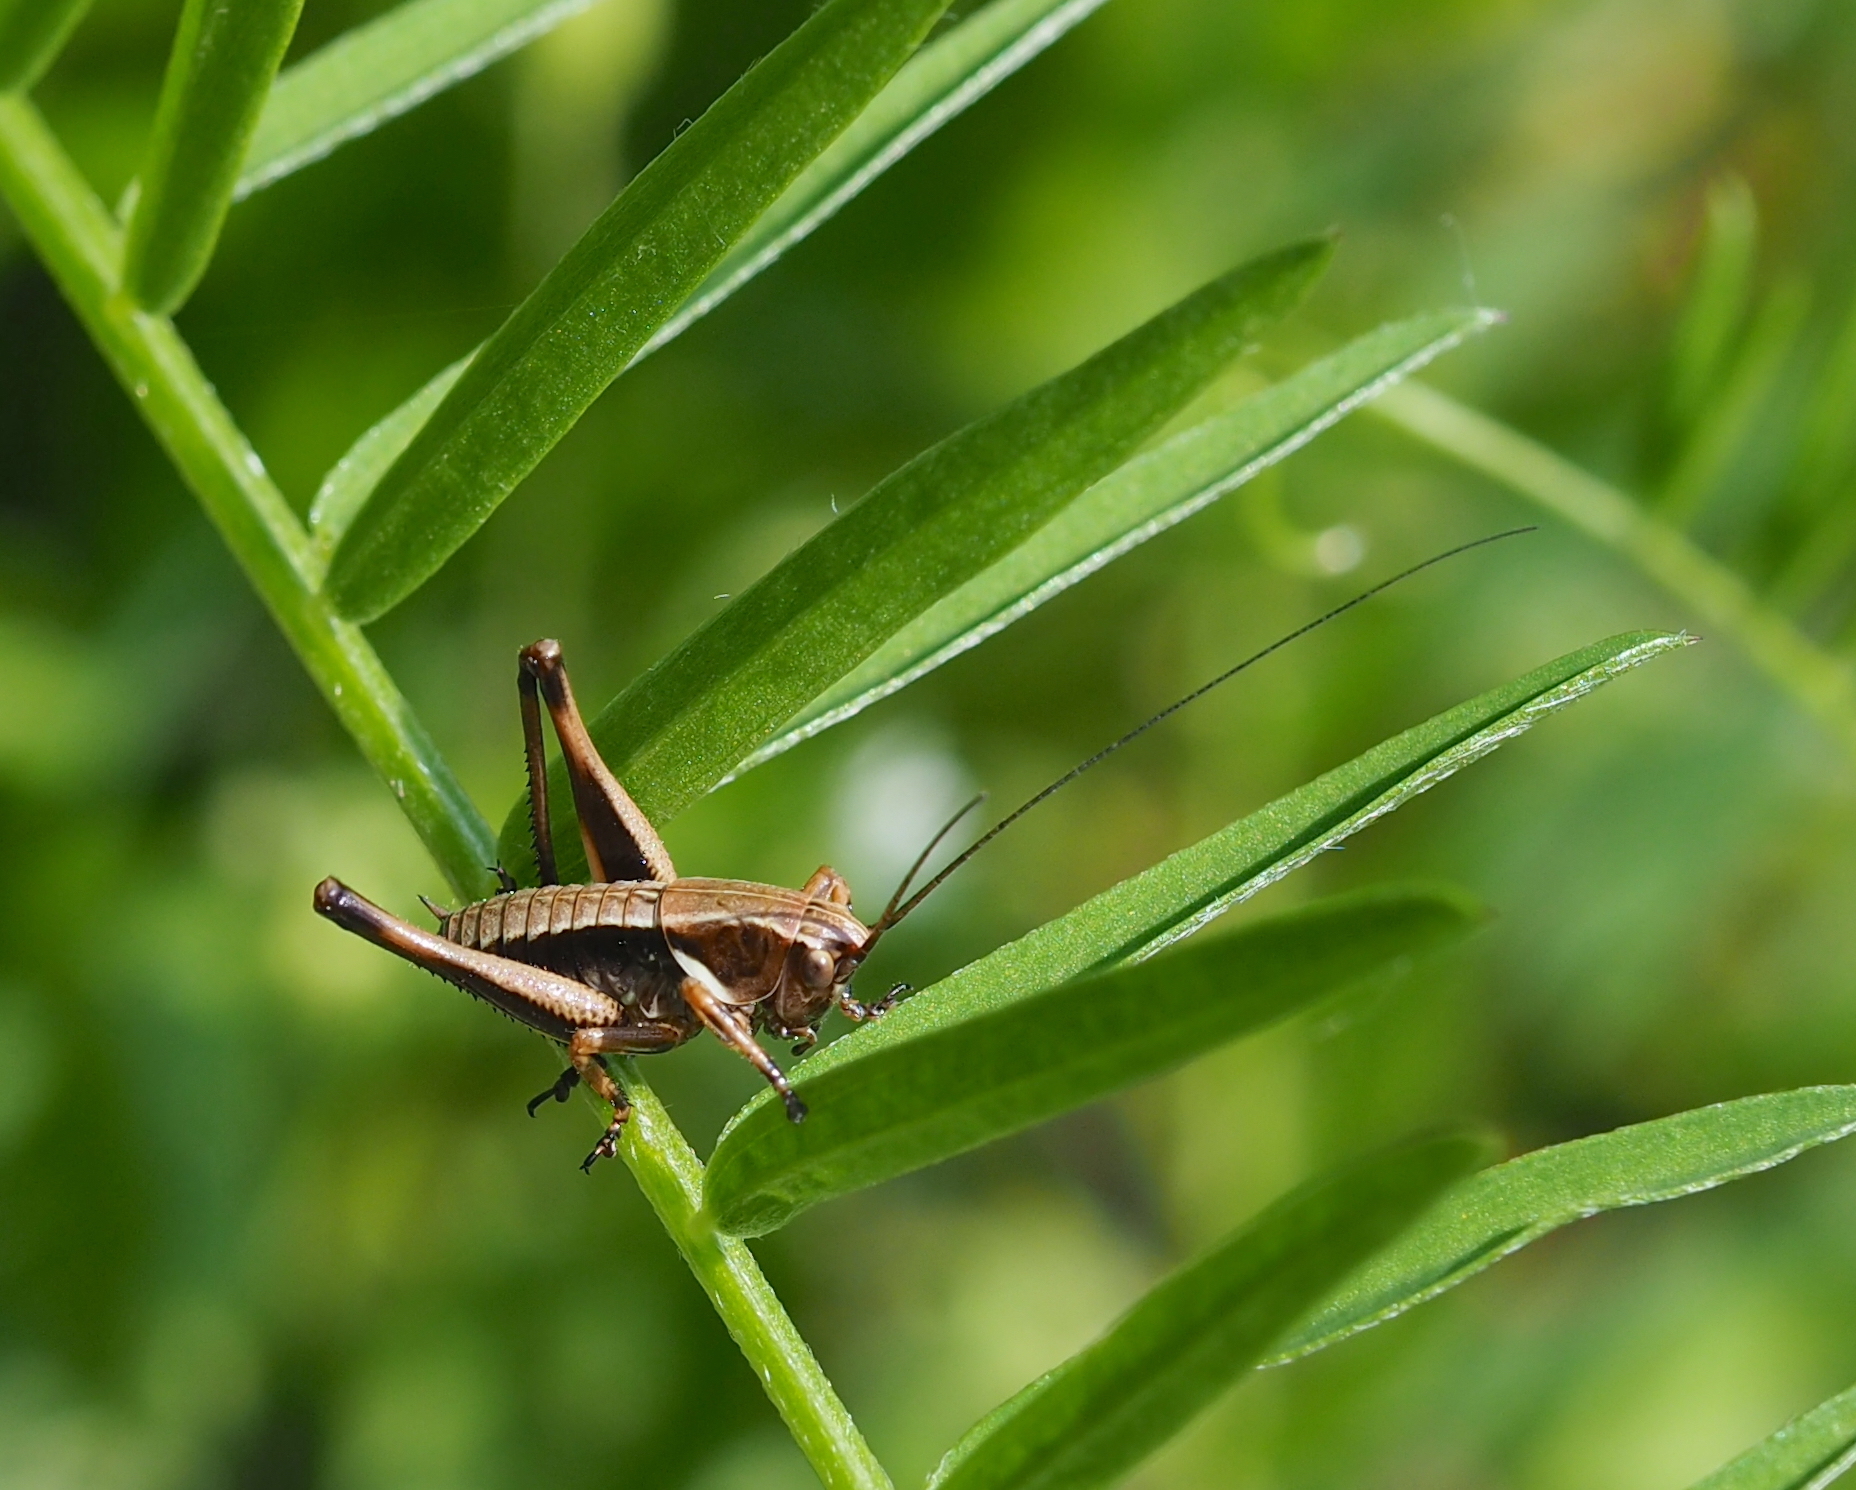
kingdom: Animalia
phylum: Arthropoda
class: Insecta
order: Orthoptera
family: Tettigoniidae
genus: Pholidoptera
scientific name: Pholidoptera aptera
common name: Alpine dark bush-cricket
